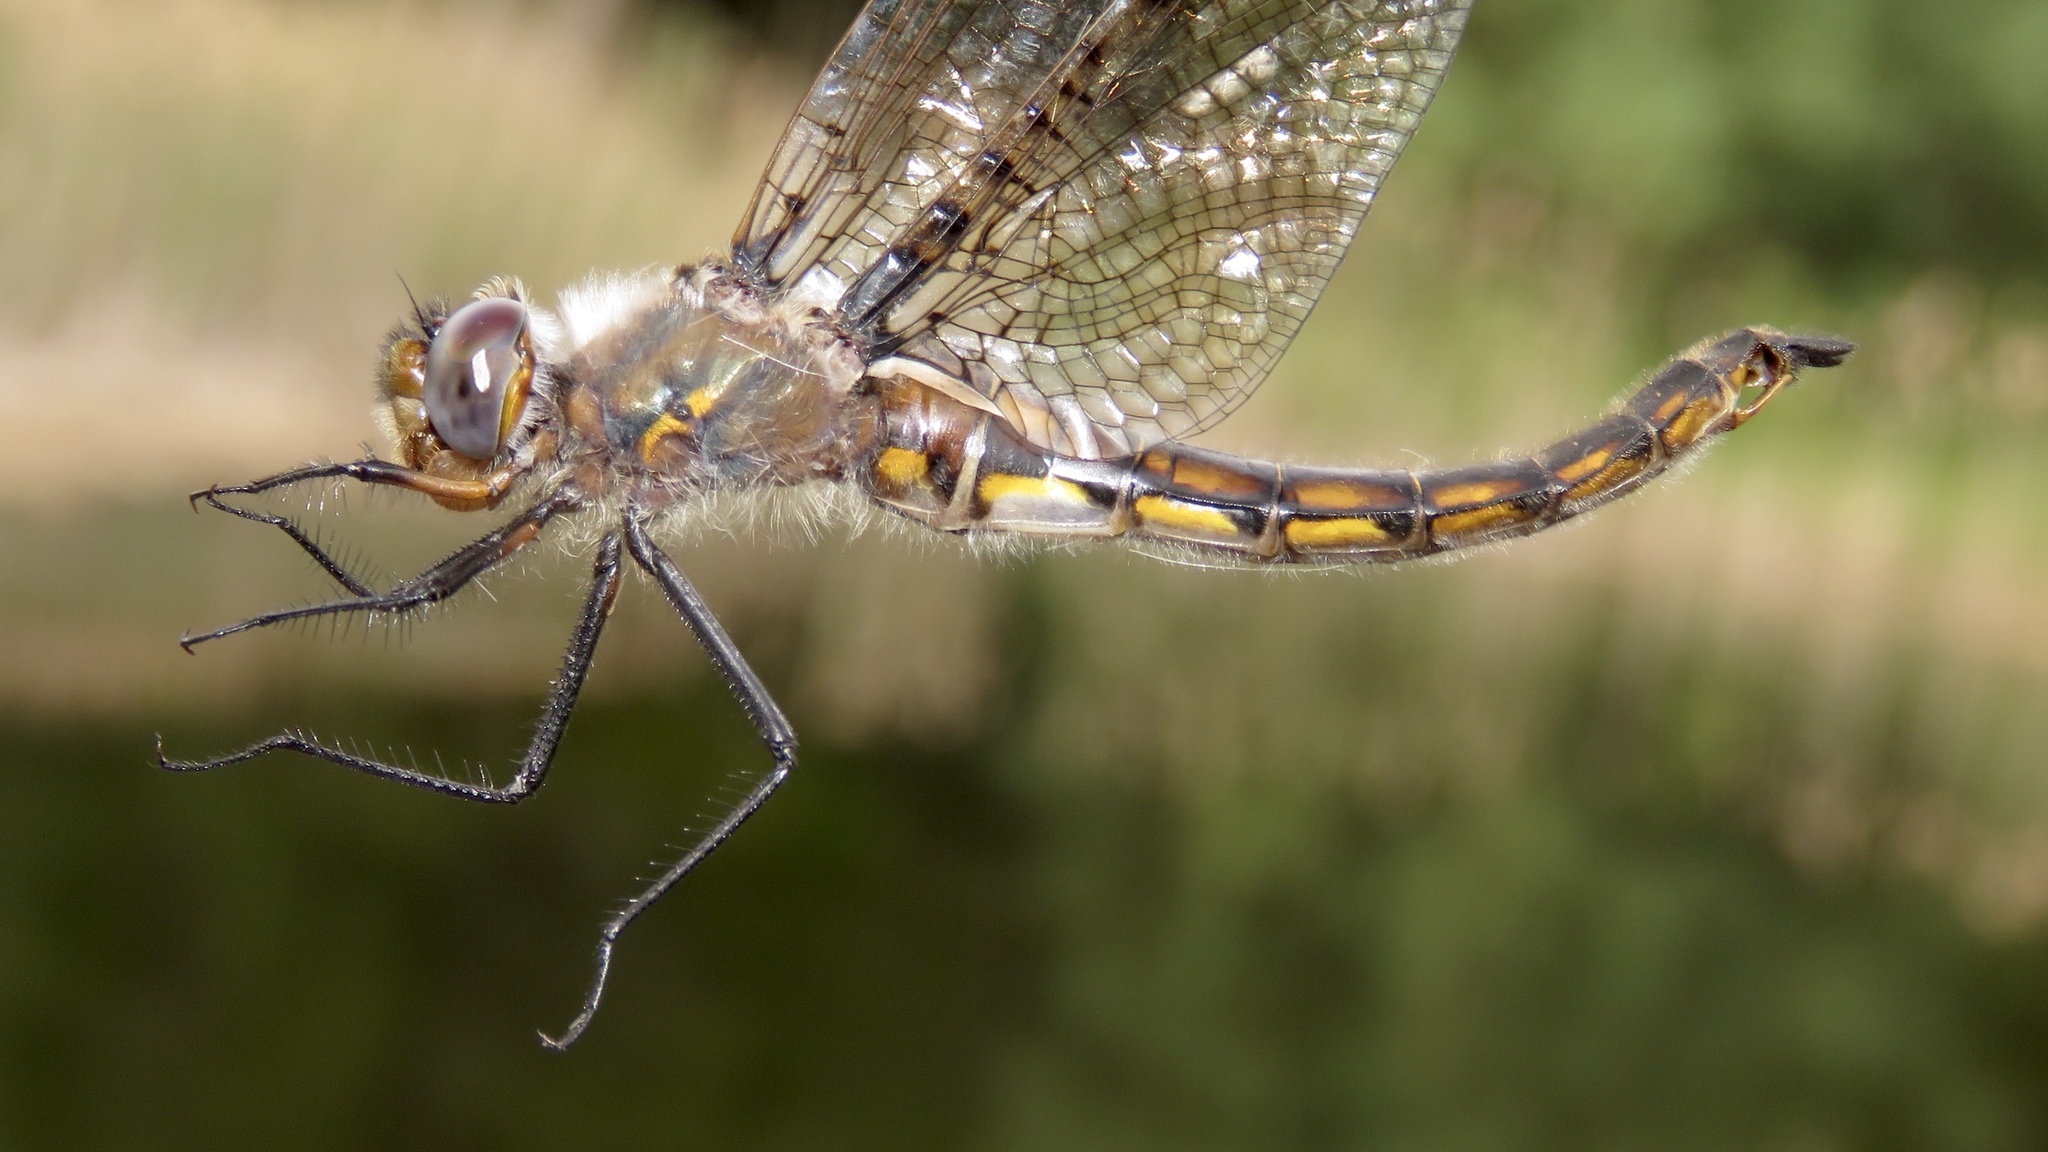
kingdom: Animalia
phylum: Arthropoda
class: Insecta
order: Odonata
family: Corduliidae
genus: Epitheca
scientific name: Epitheca canis
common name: Beaverpond baskettail
